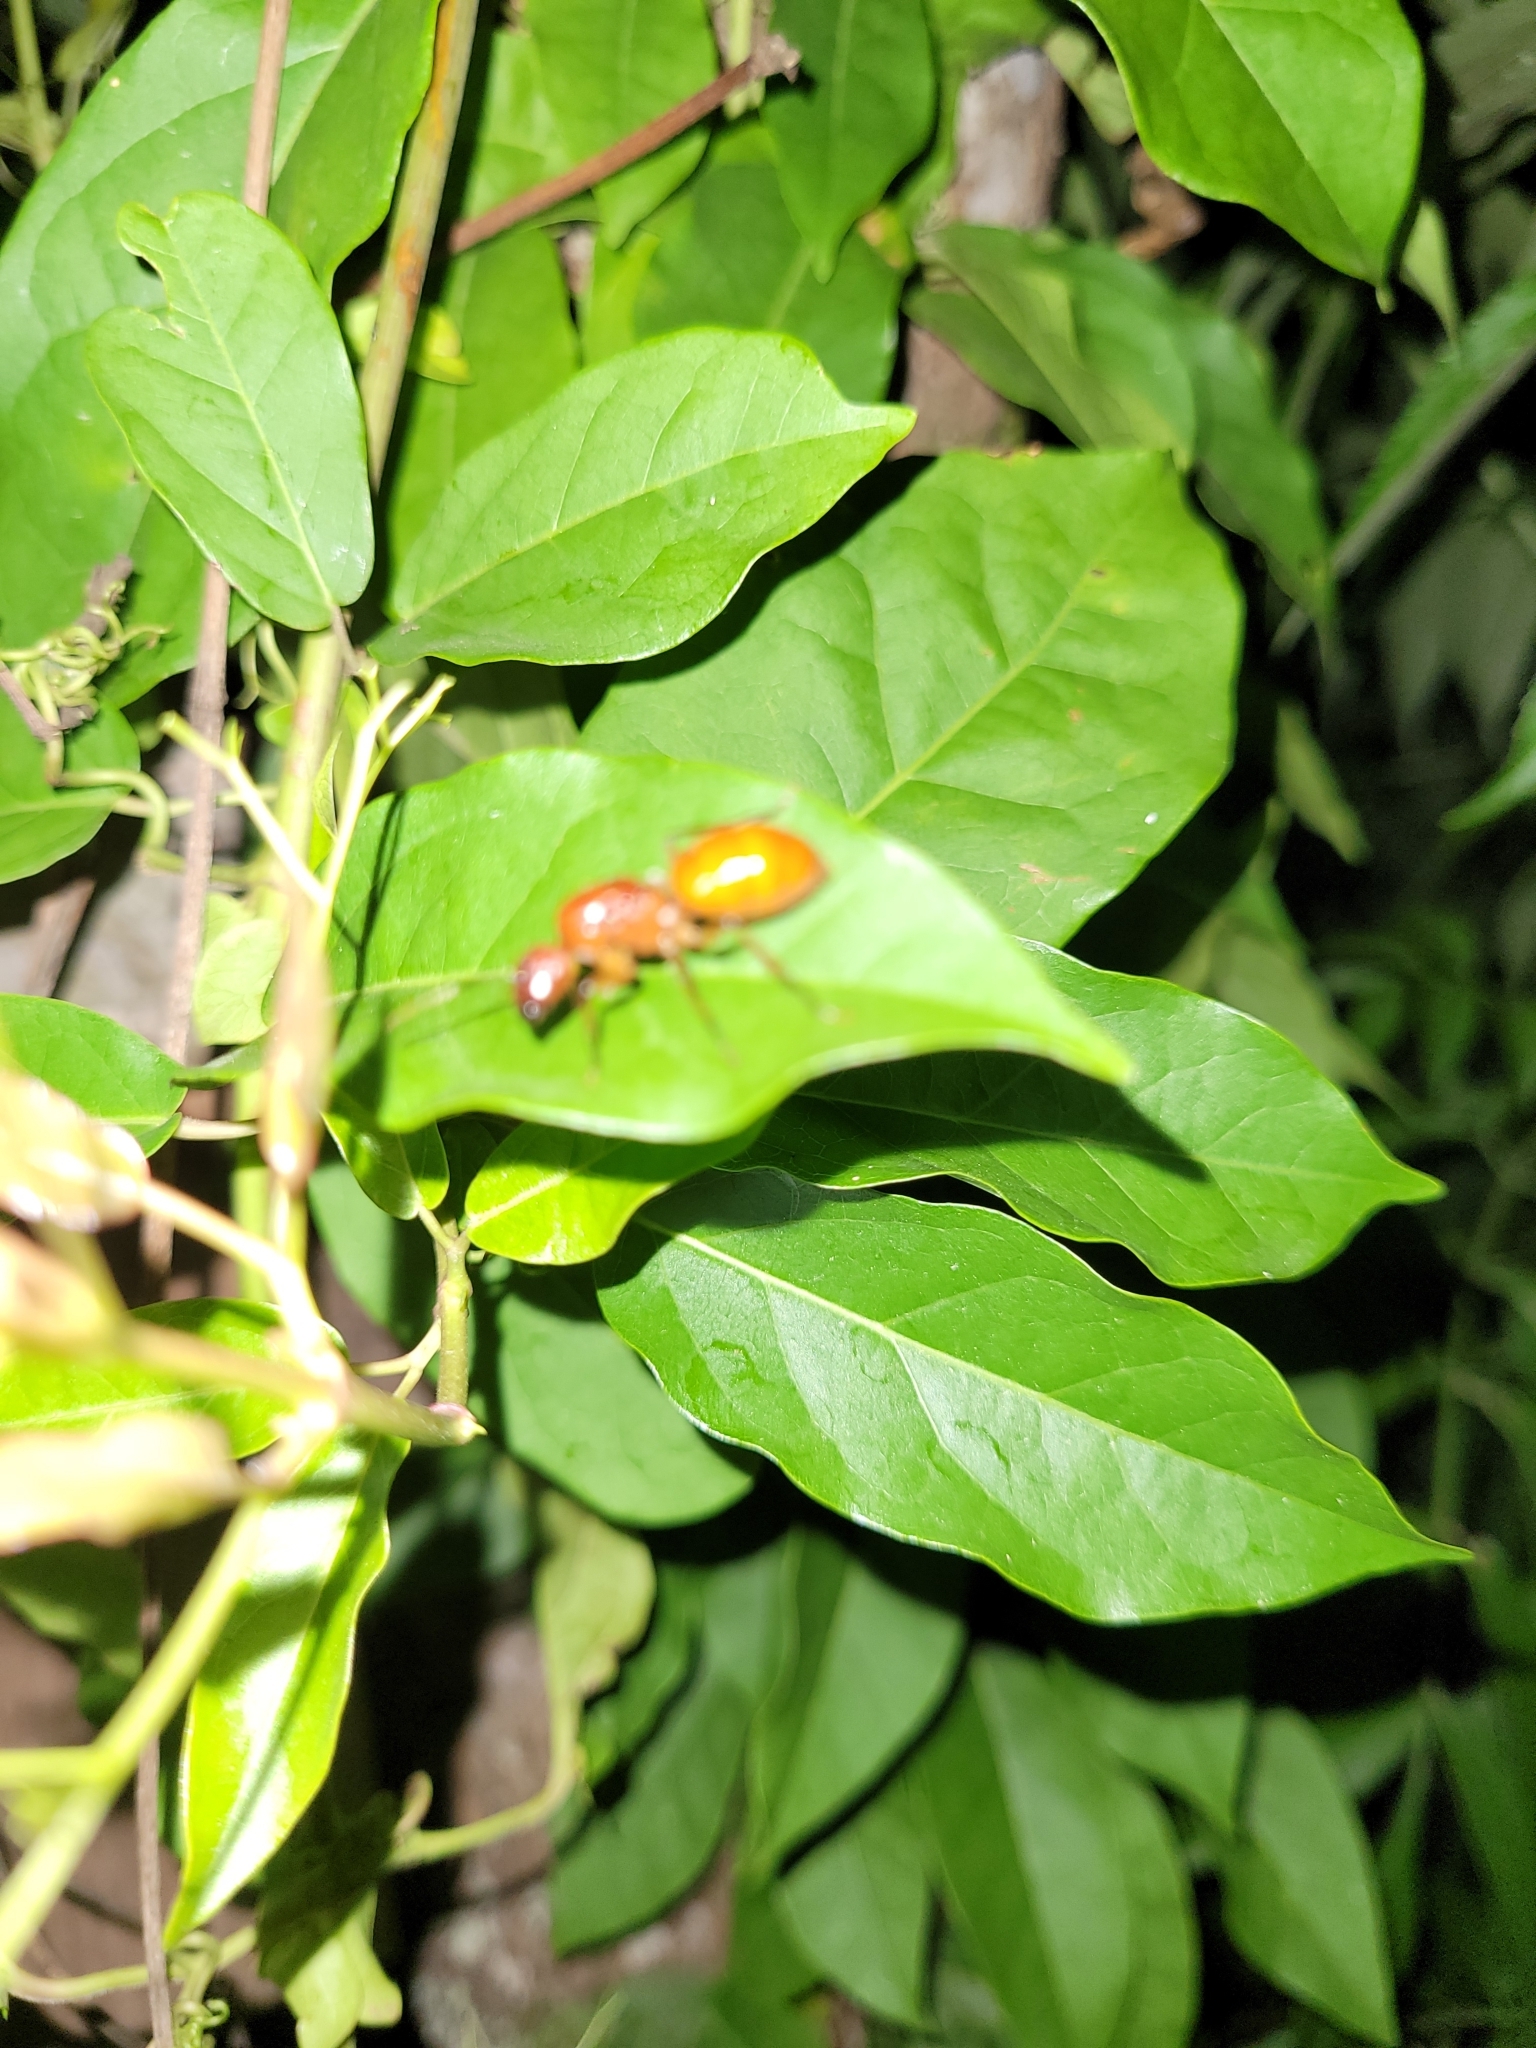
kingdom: Animalia
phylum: Arthropoda
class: Insecta
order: Hymenoptera
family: Formicidae
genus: Camponotus
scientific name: Camponotus castaneus
